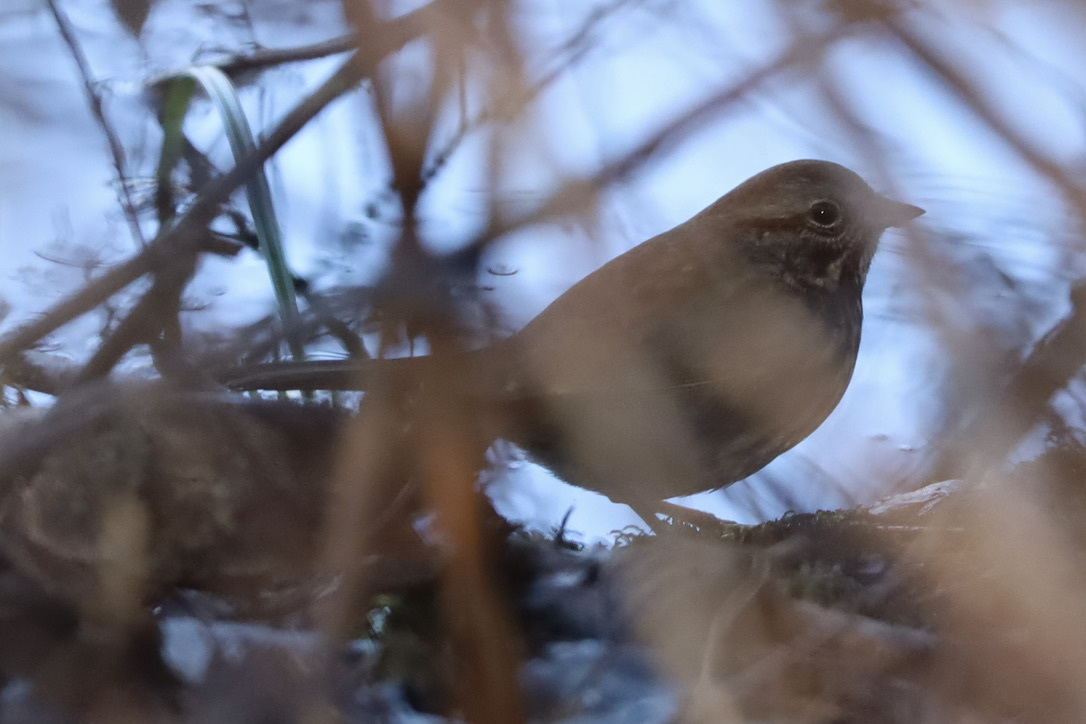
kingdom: Animalia
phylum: Chordata
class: Aves
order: Passeriformes
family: Passerellidae
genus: Melospiza
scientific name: Melospiza melodia
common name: Song sparrow
